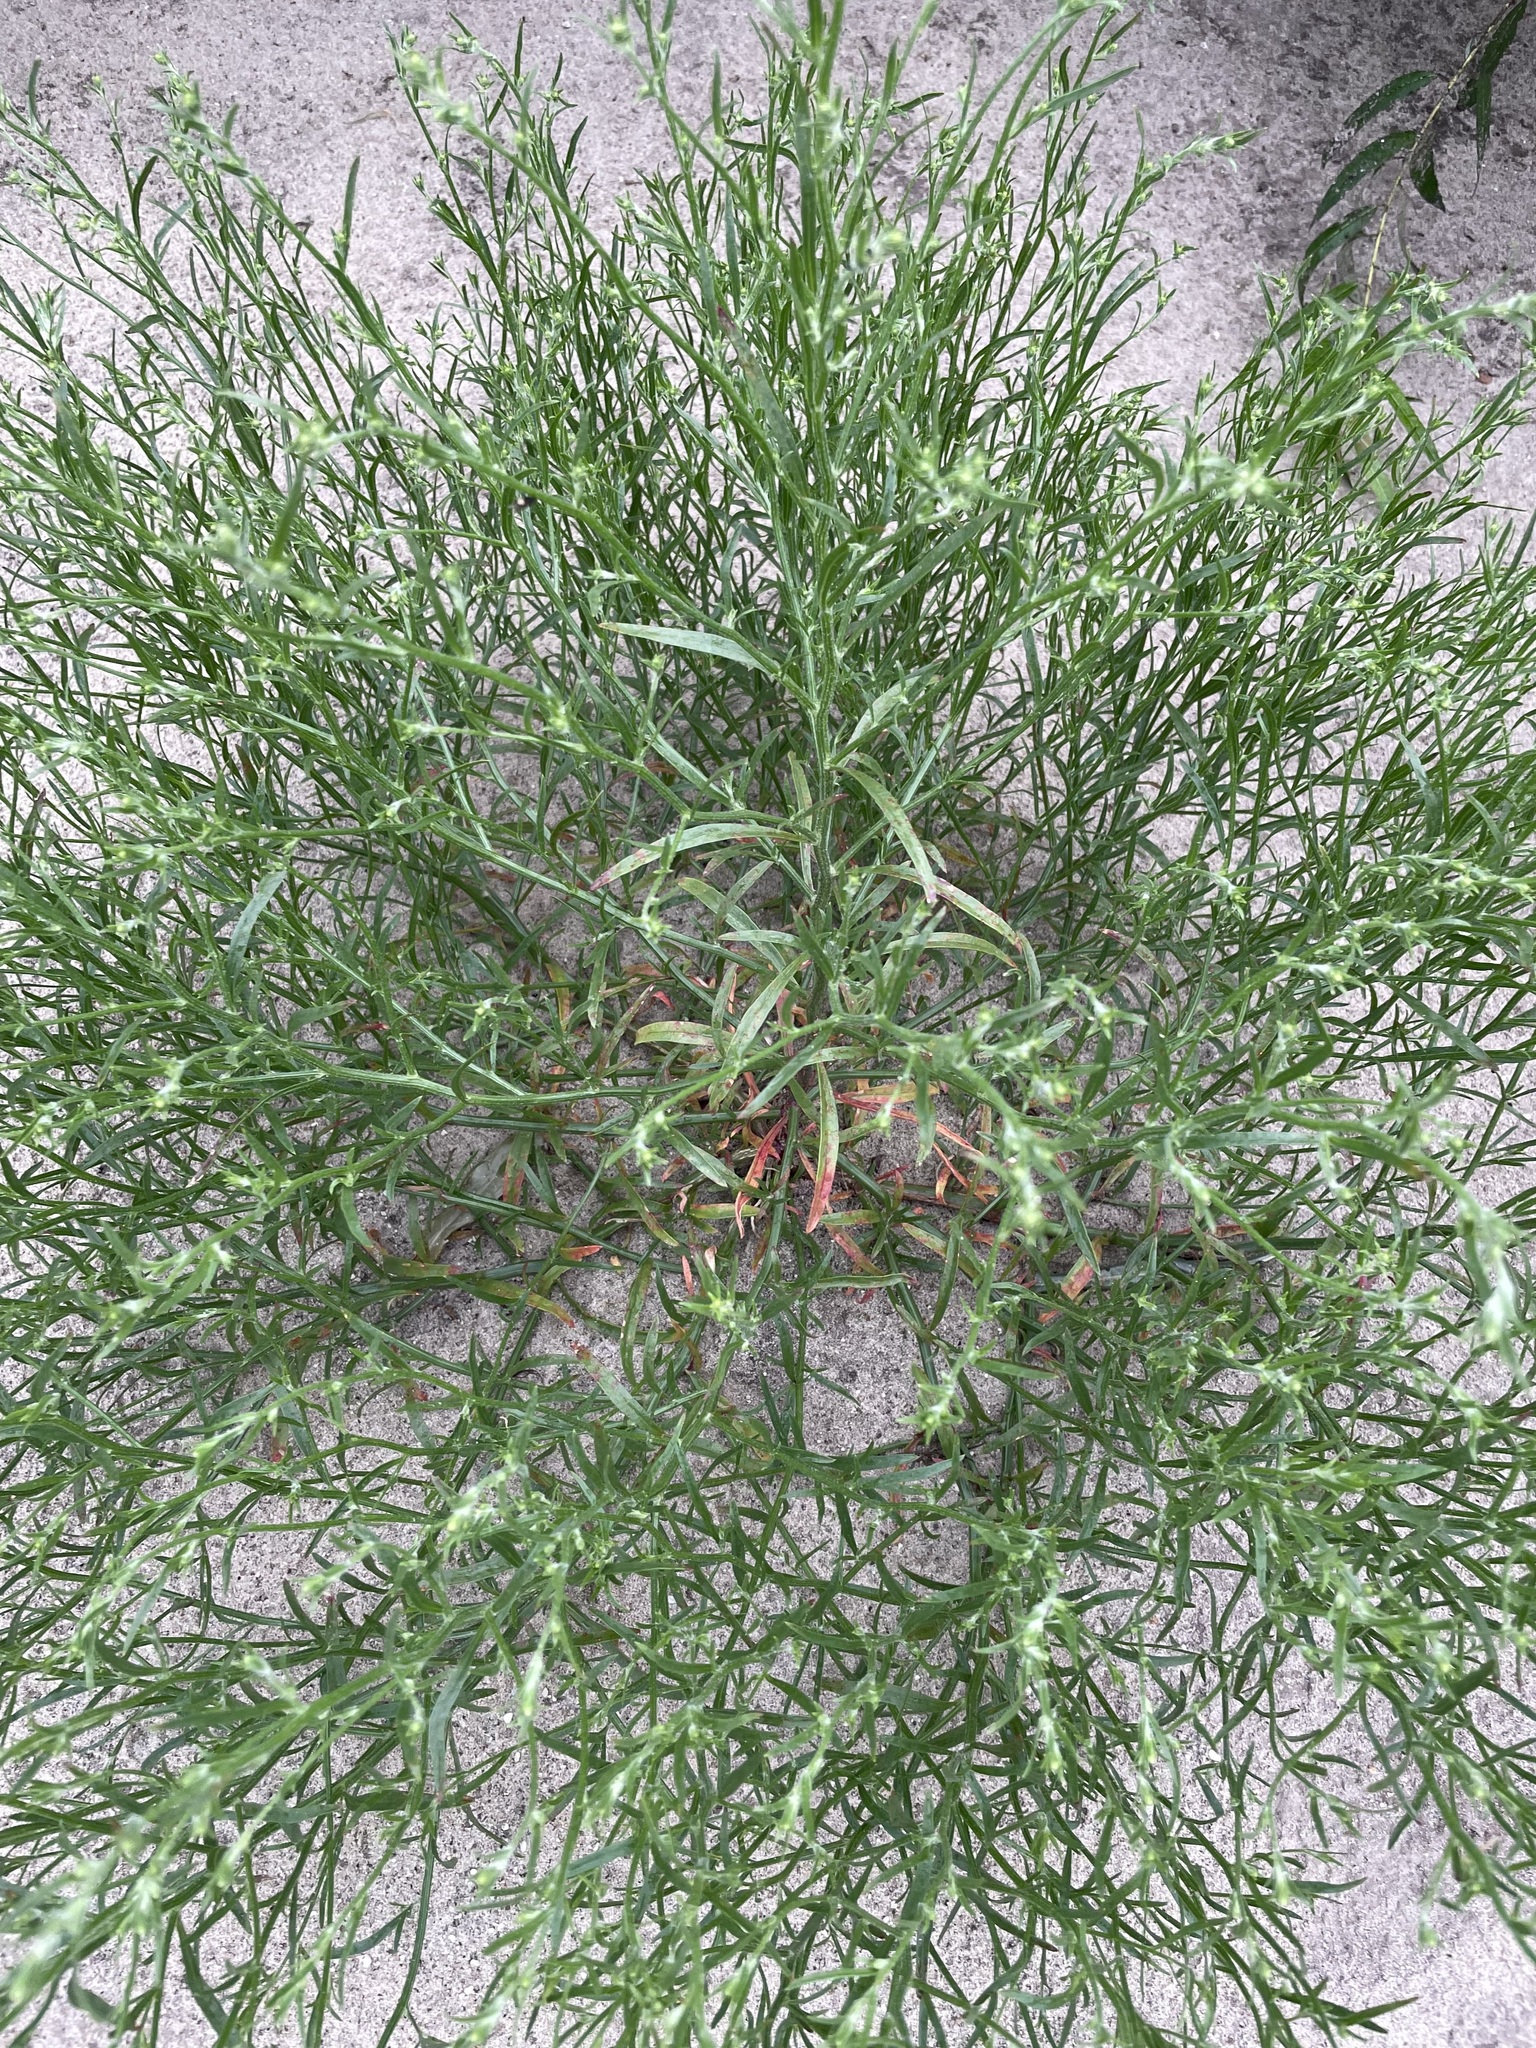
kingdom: Plantae
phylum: Tracheophyta
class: Magnoliopsida
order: Caryophyllales
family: Amaranthaceae
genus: Corispermum
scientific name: Corispermum hyssopifolium
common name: Bugseed
